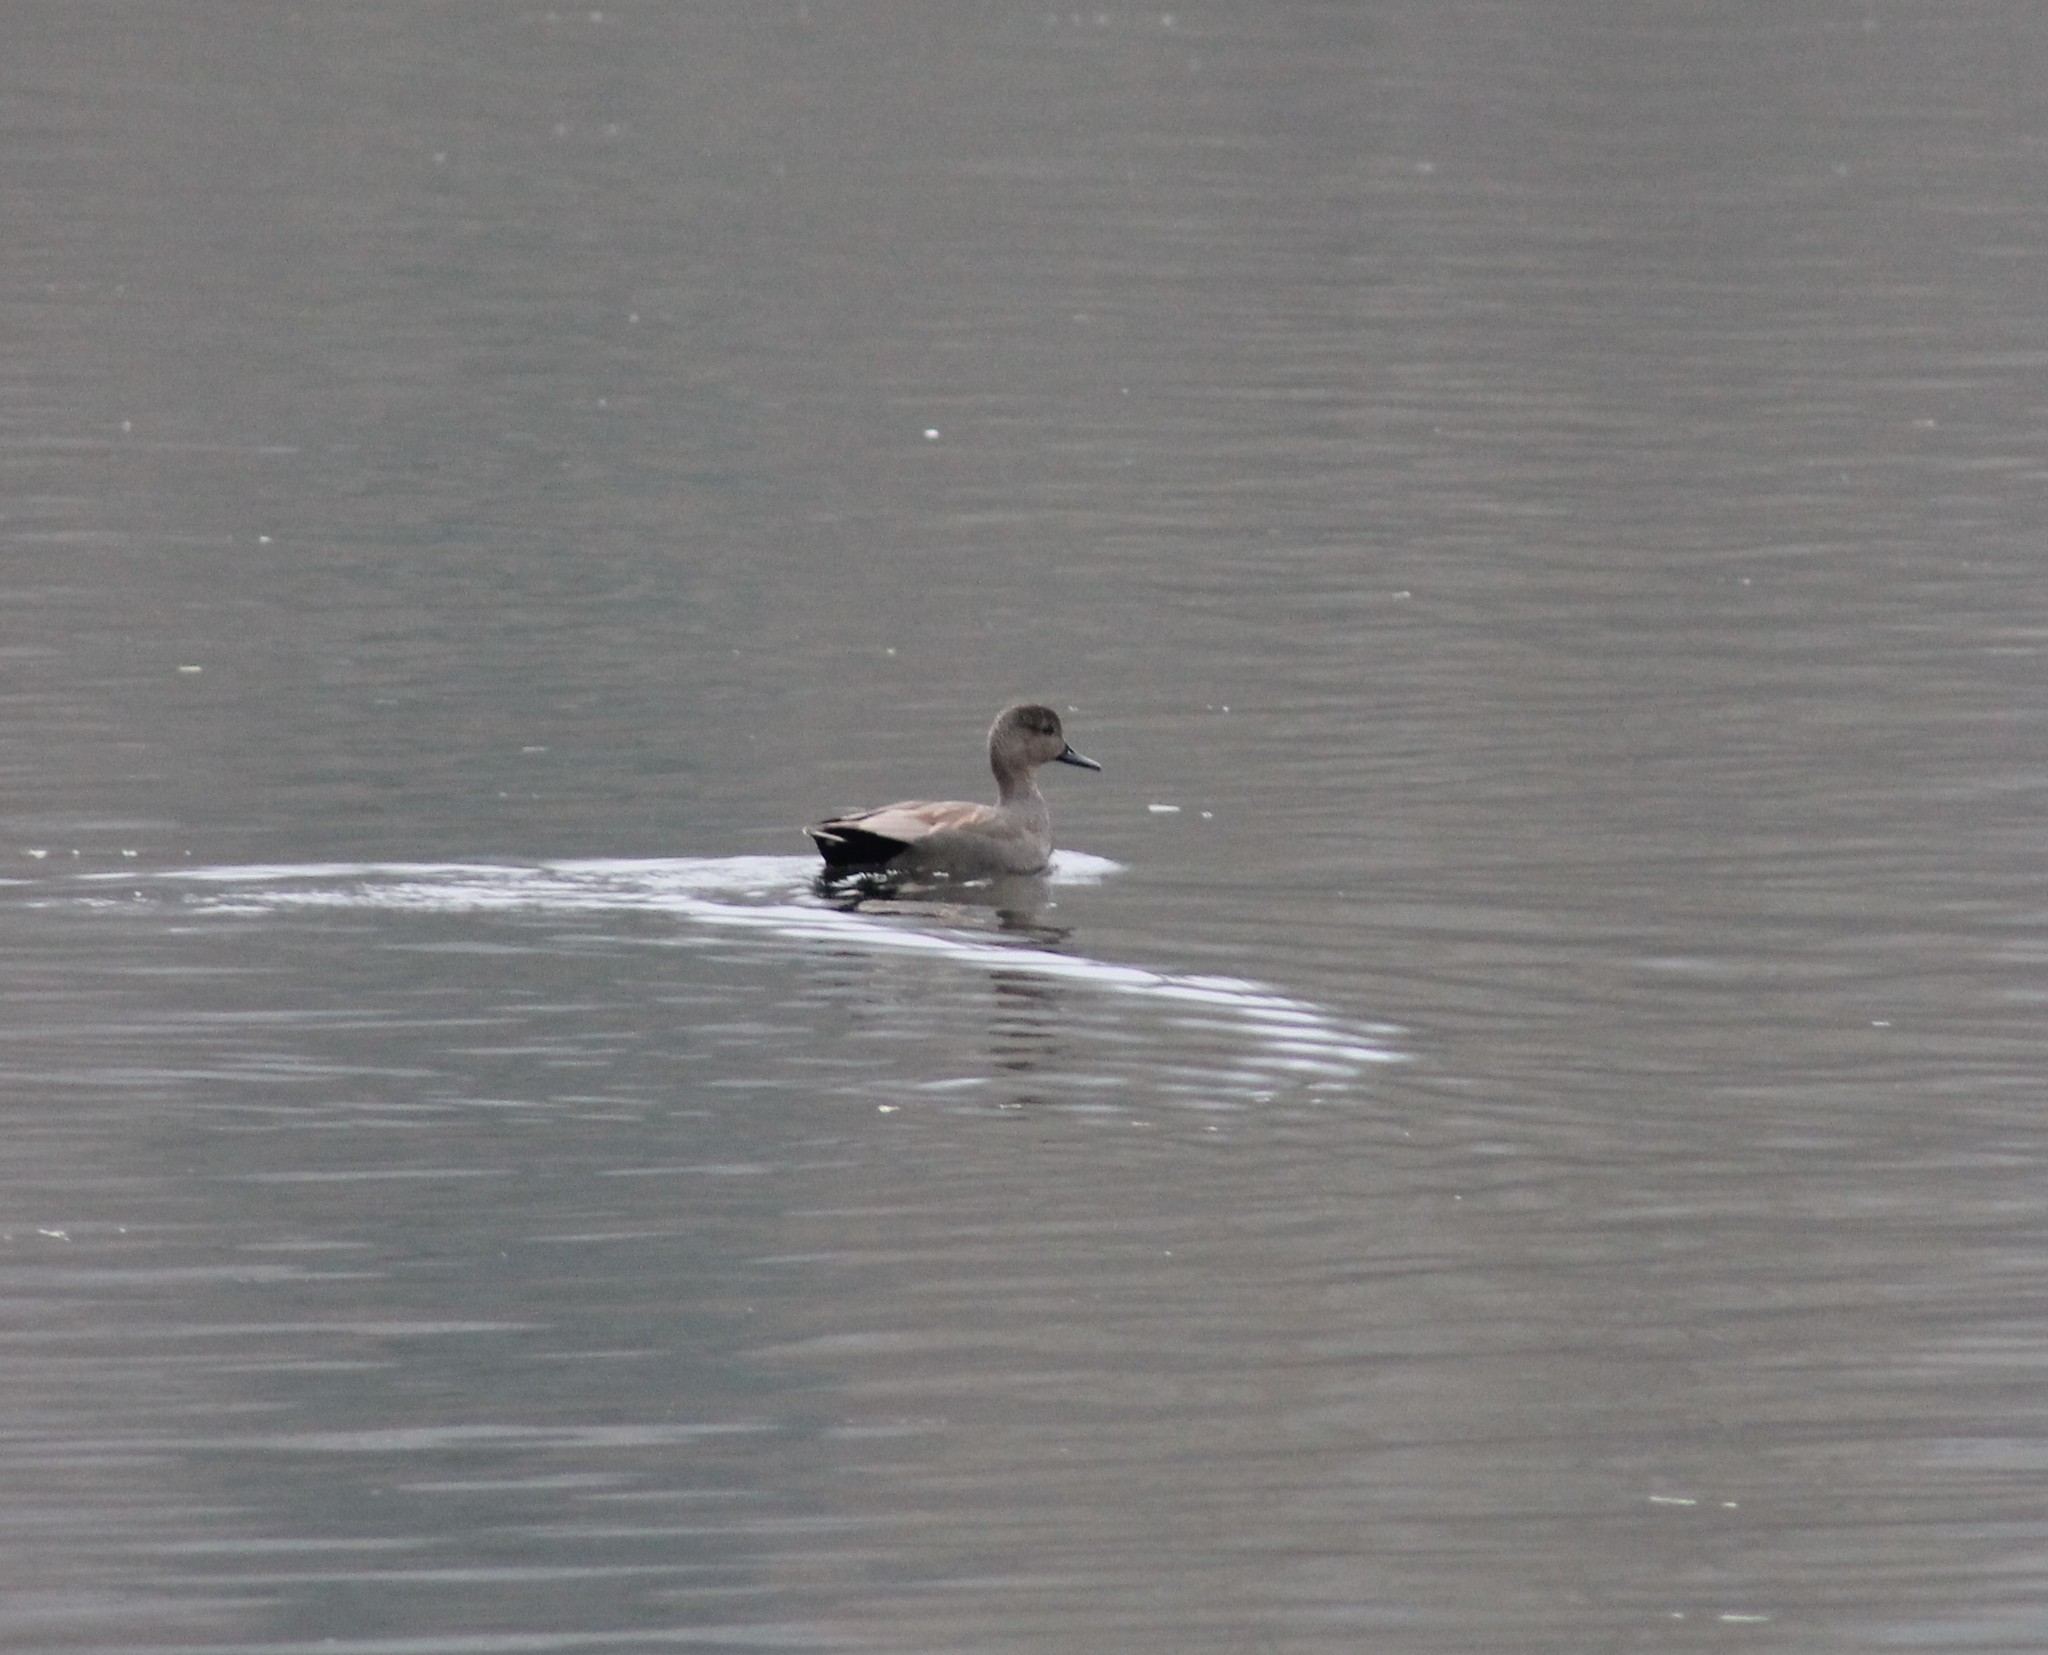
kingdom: Animalia
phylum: Chordata
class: Aves
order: Anseriformes
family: Anatidae
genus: Mareca
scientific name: Mareca strepera
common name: Gadwall
